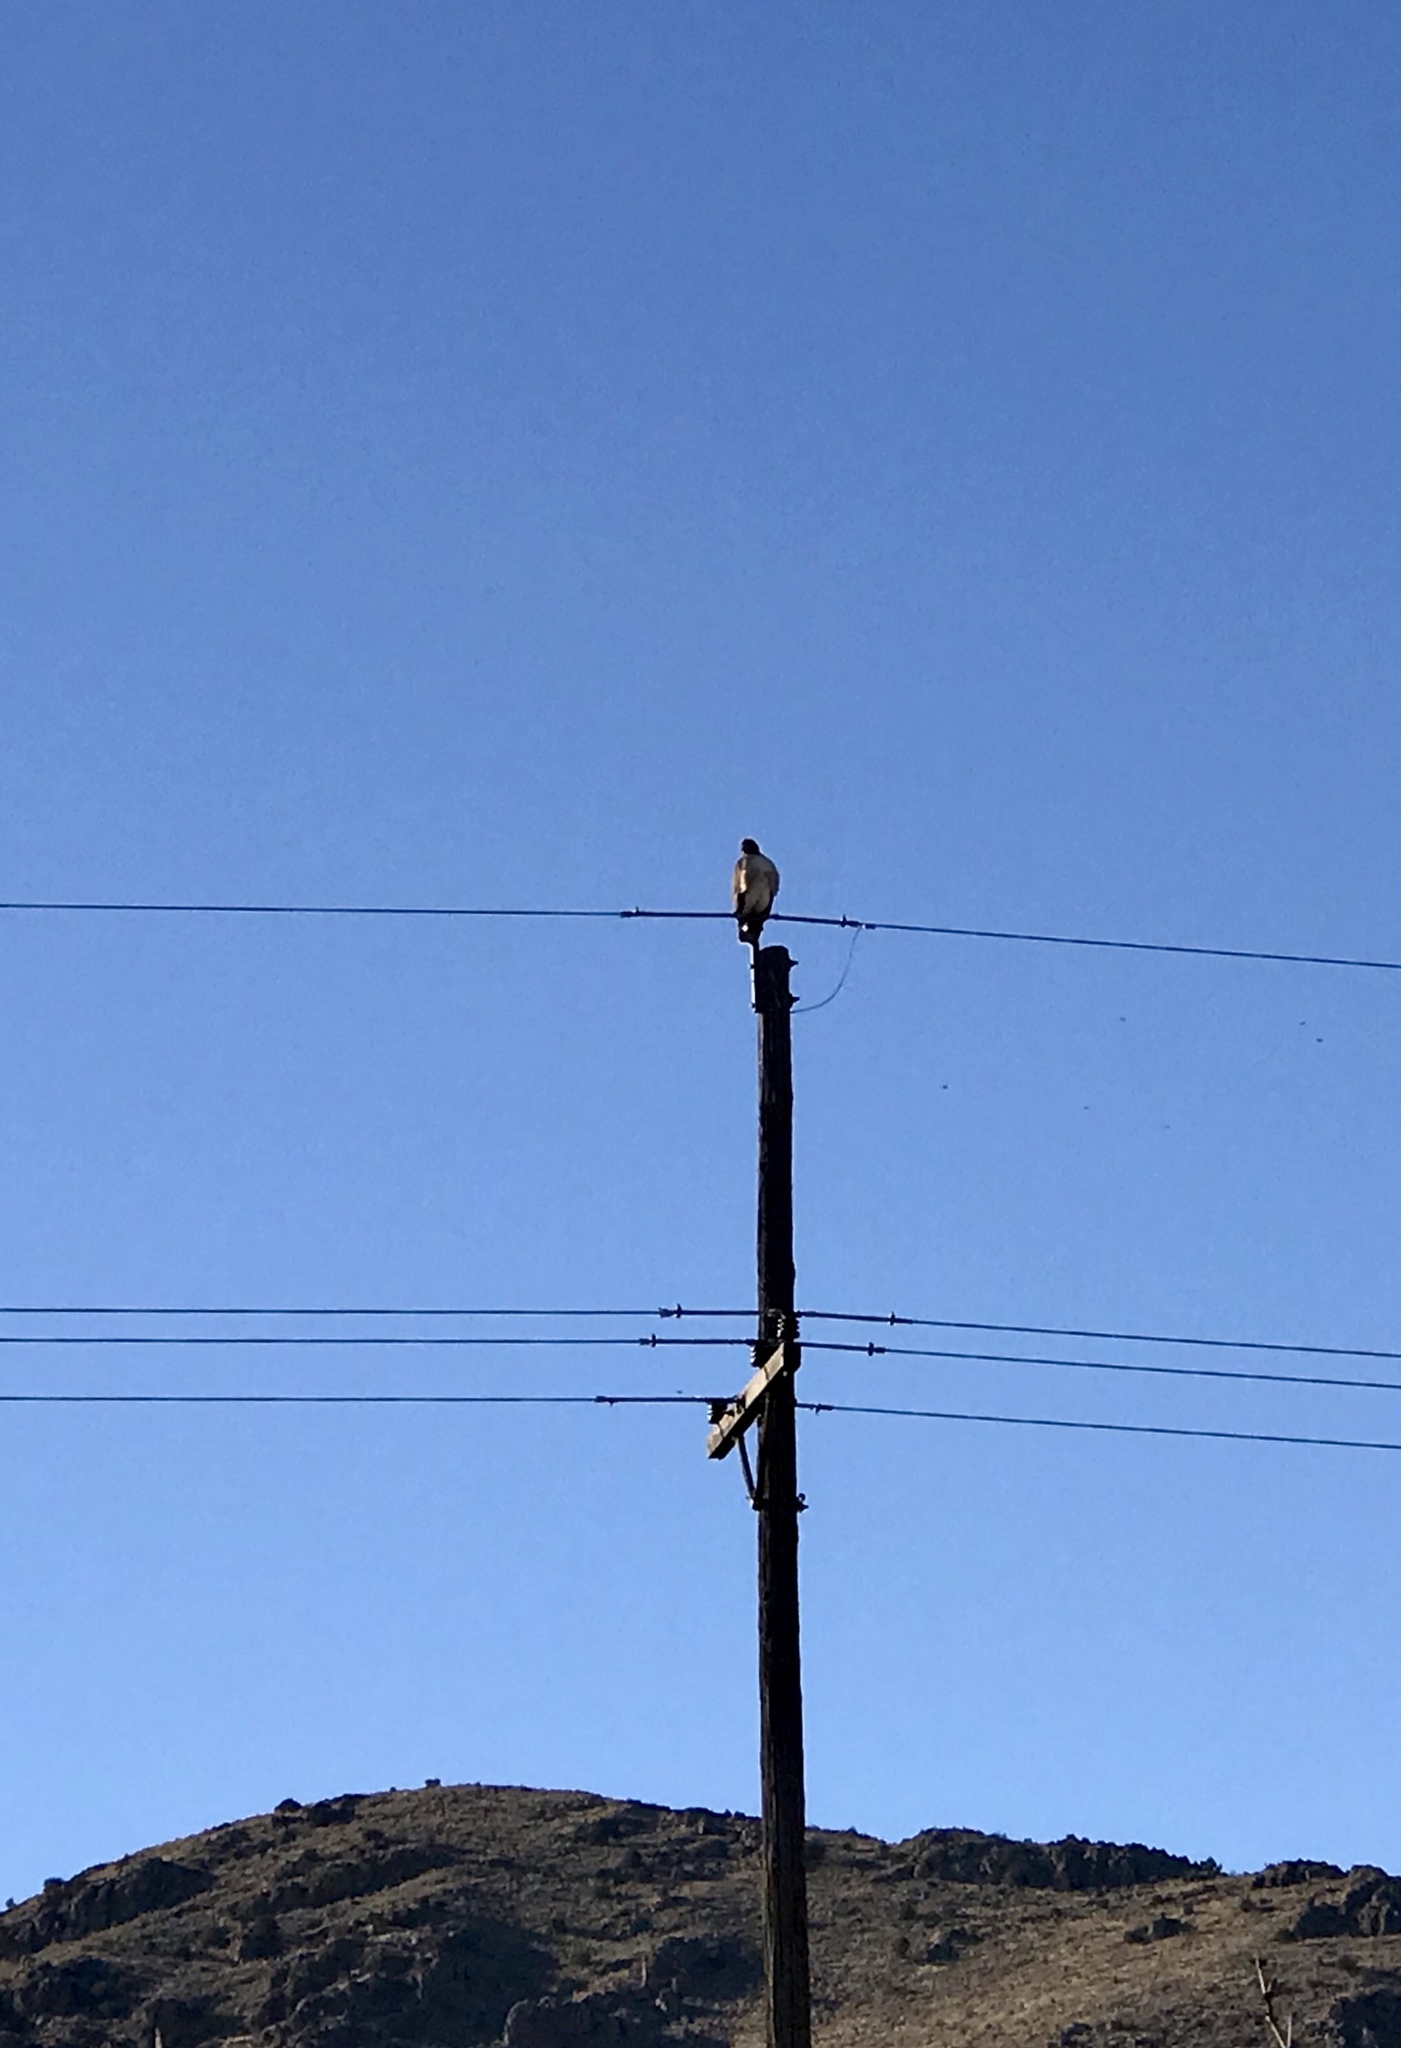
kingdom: Animalia
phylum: Chordata
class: Aves
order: Accipitriformes
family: Accipitridae
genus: Buteo
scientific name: Buteo jamaicensis
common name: Red-tailed hawk
